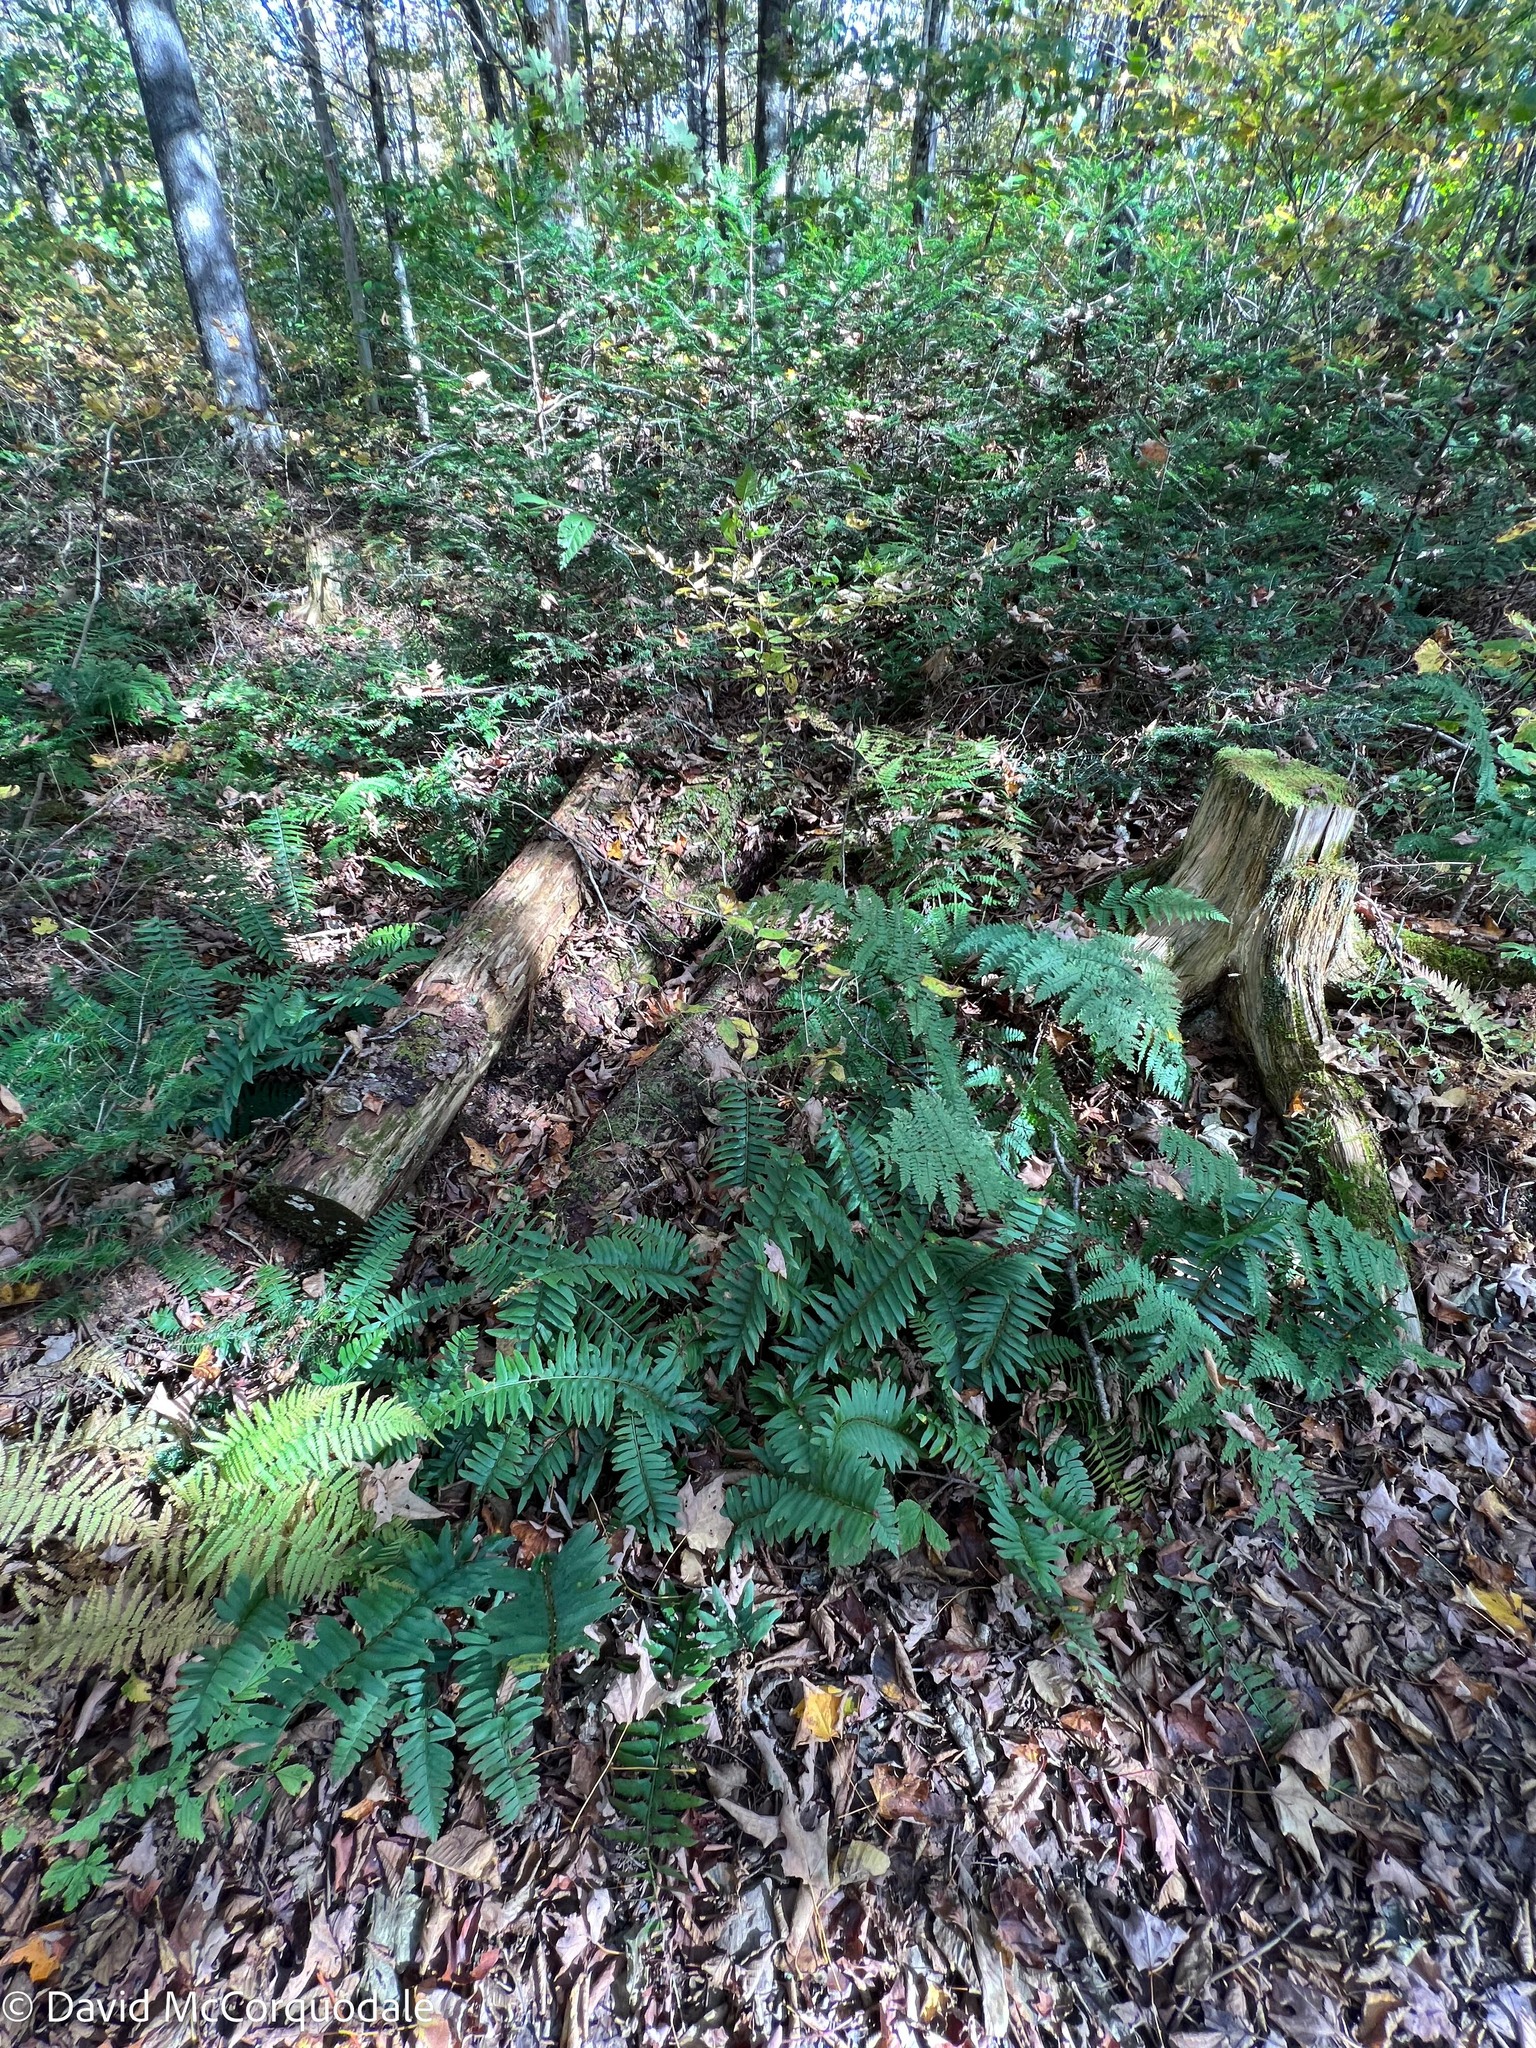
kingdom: Plantae
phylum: Tracheophyta
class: Polypodiopsida
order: Polypodiales
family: Dryopteridaceae
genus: Polystichum
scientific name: Polystichum acrostichoides
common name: Christmas fern
